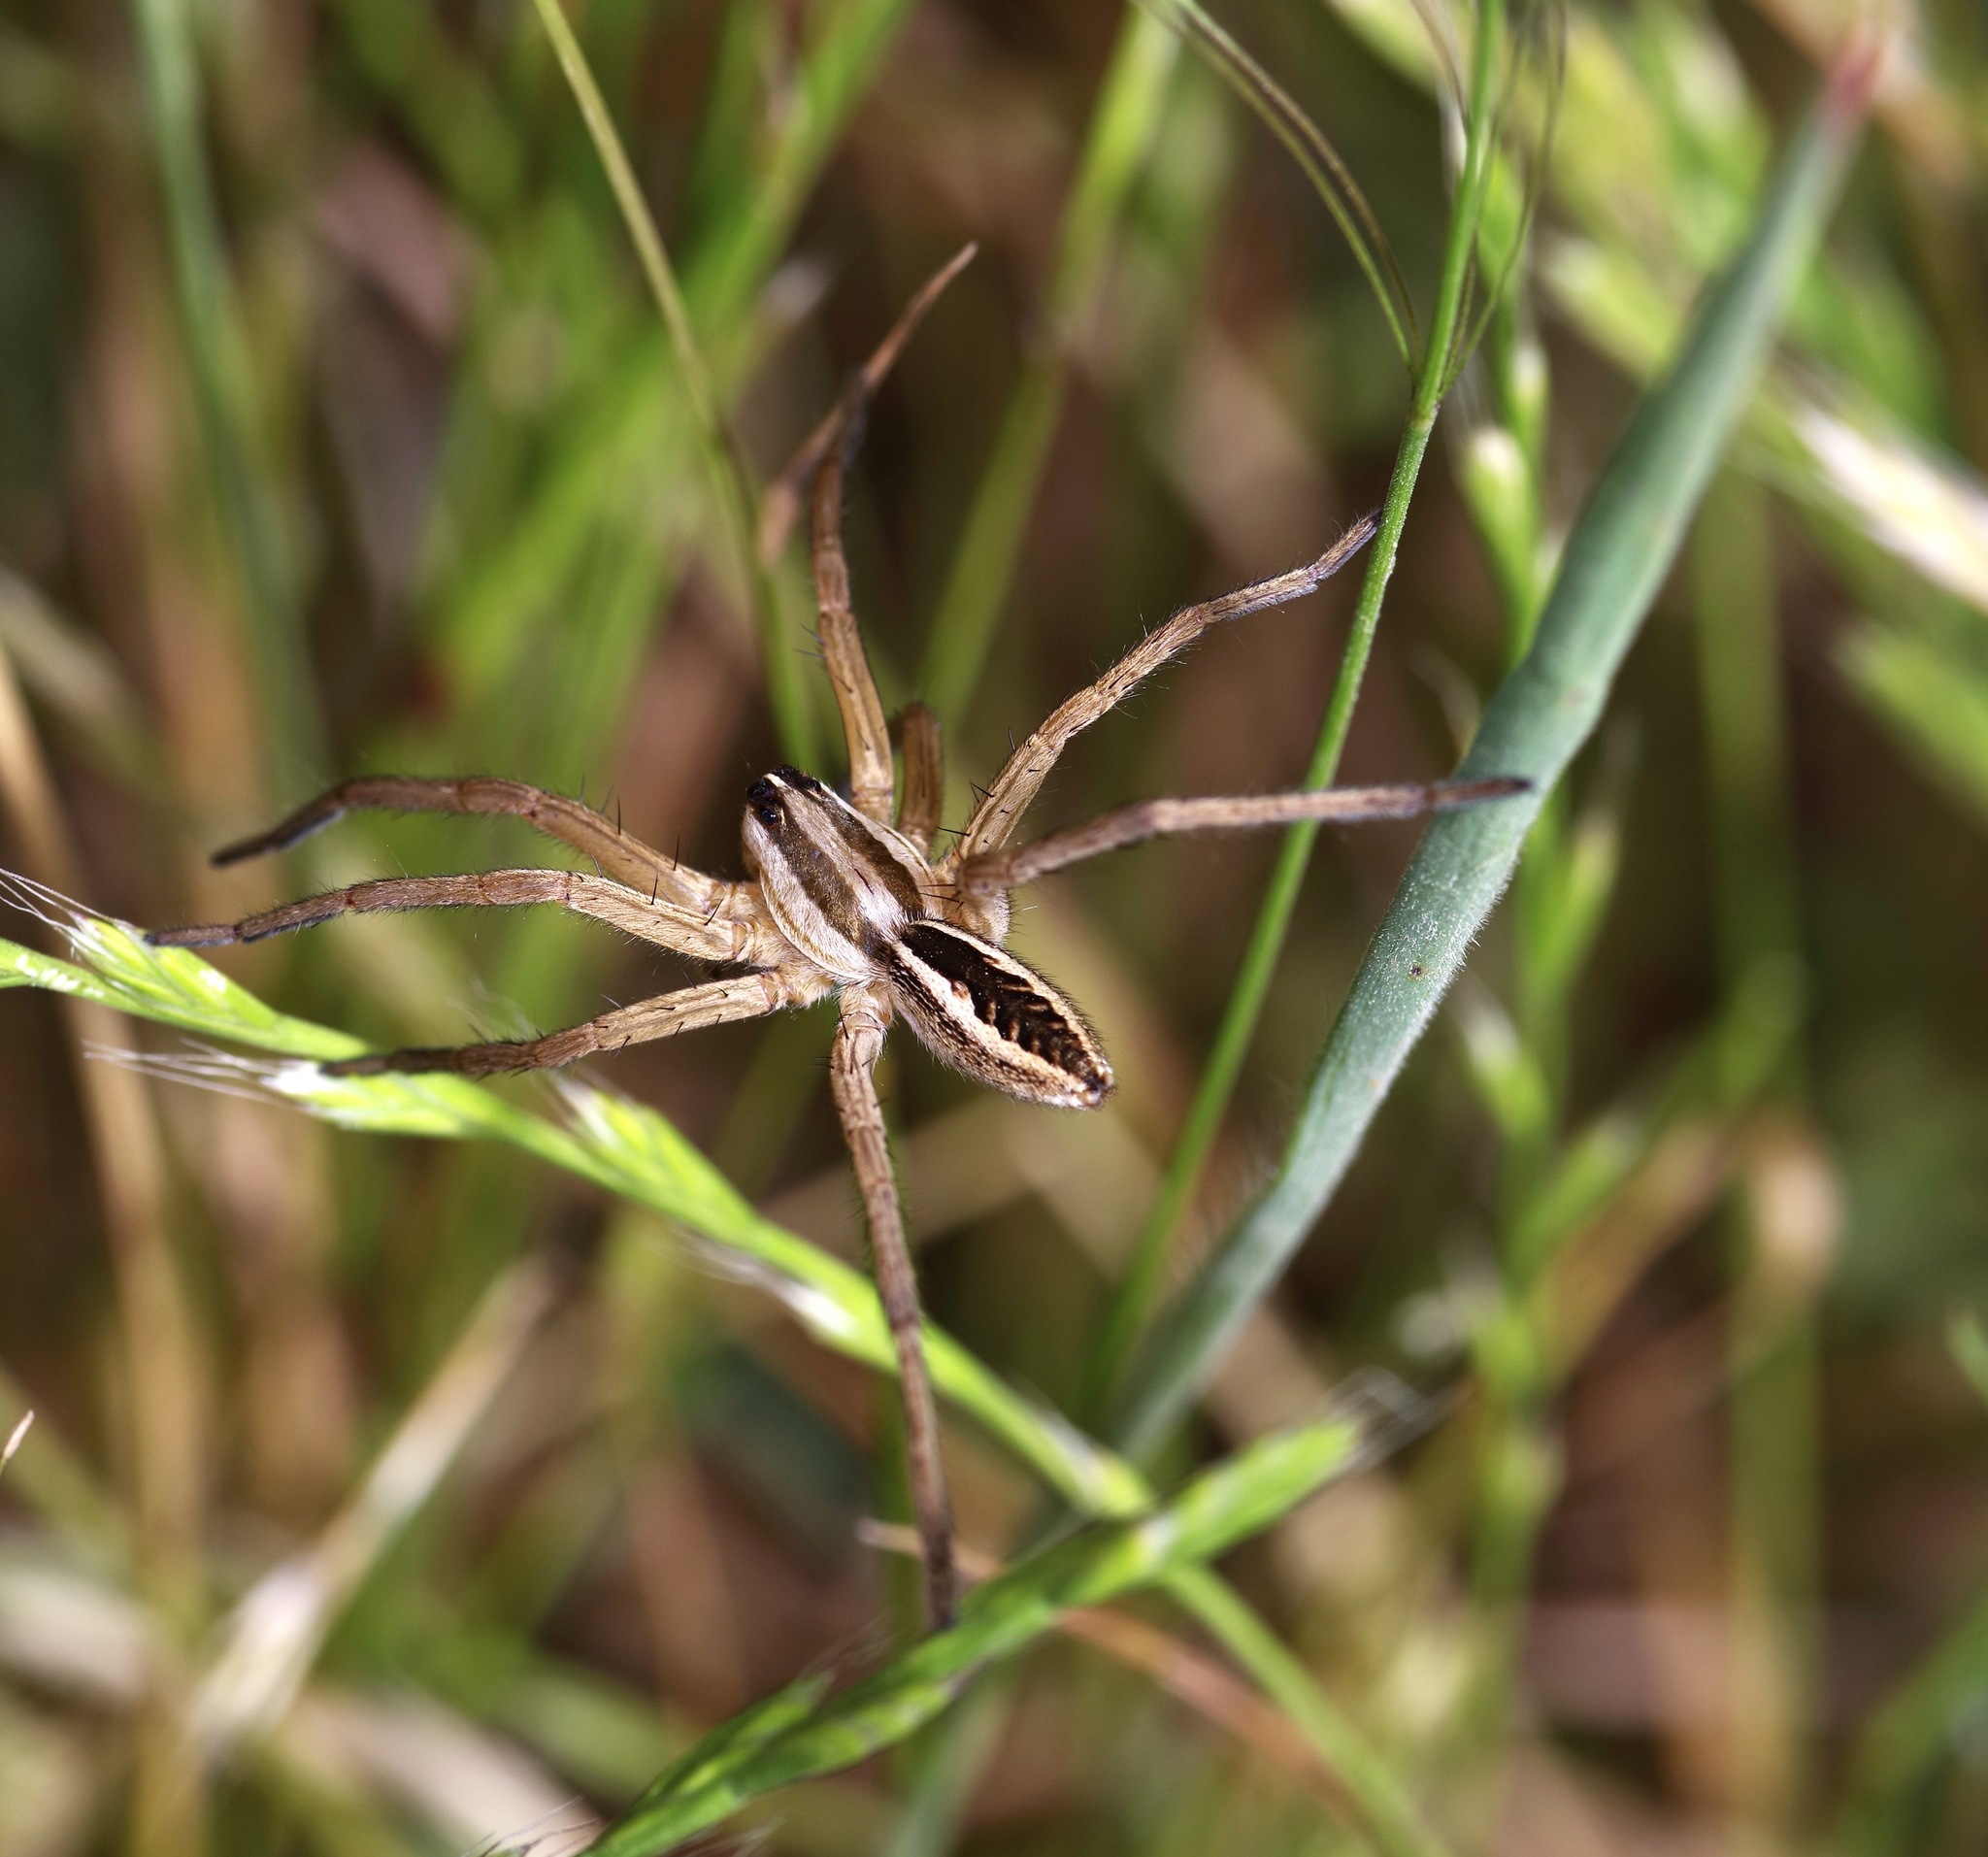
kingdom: Animalia
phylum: Arthropoda
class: Arachnida
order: Araneae
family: Lycosidae
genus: Rabidosa
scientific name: Rabidosa rabida
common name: Rabid wolf spider
